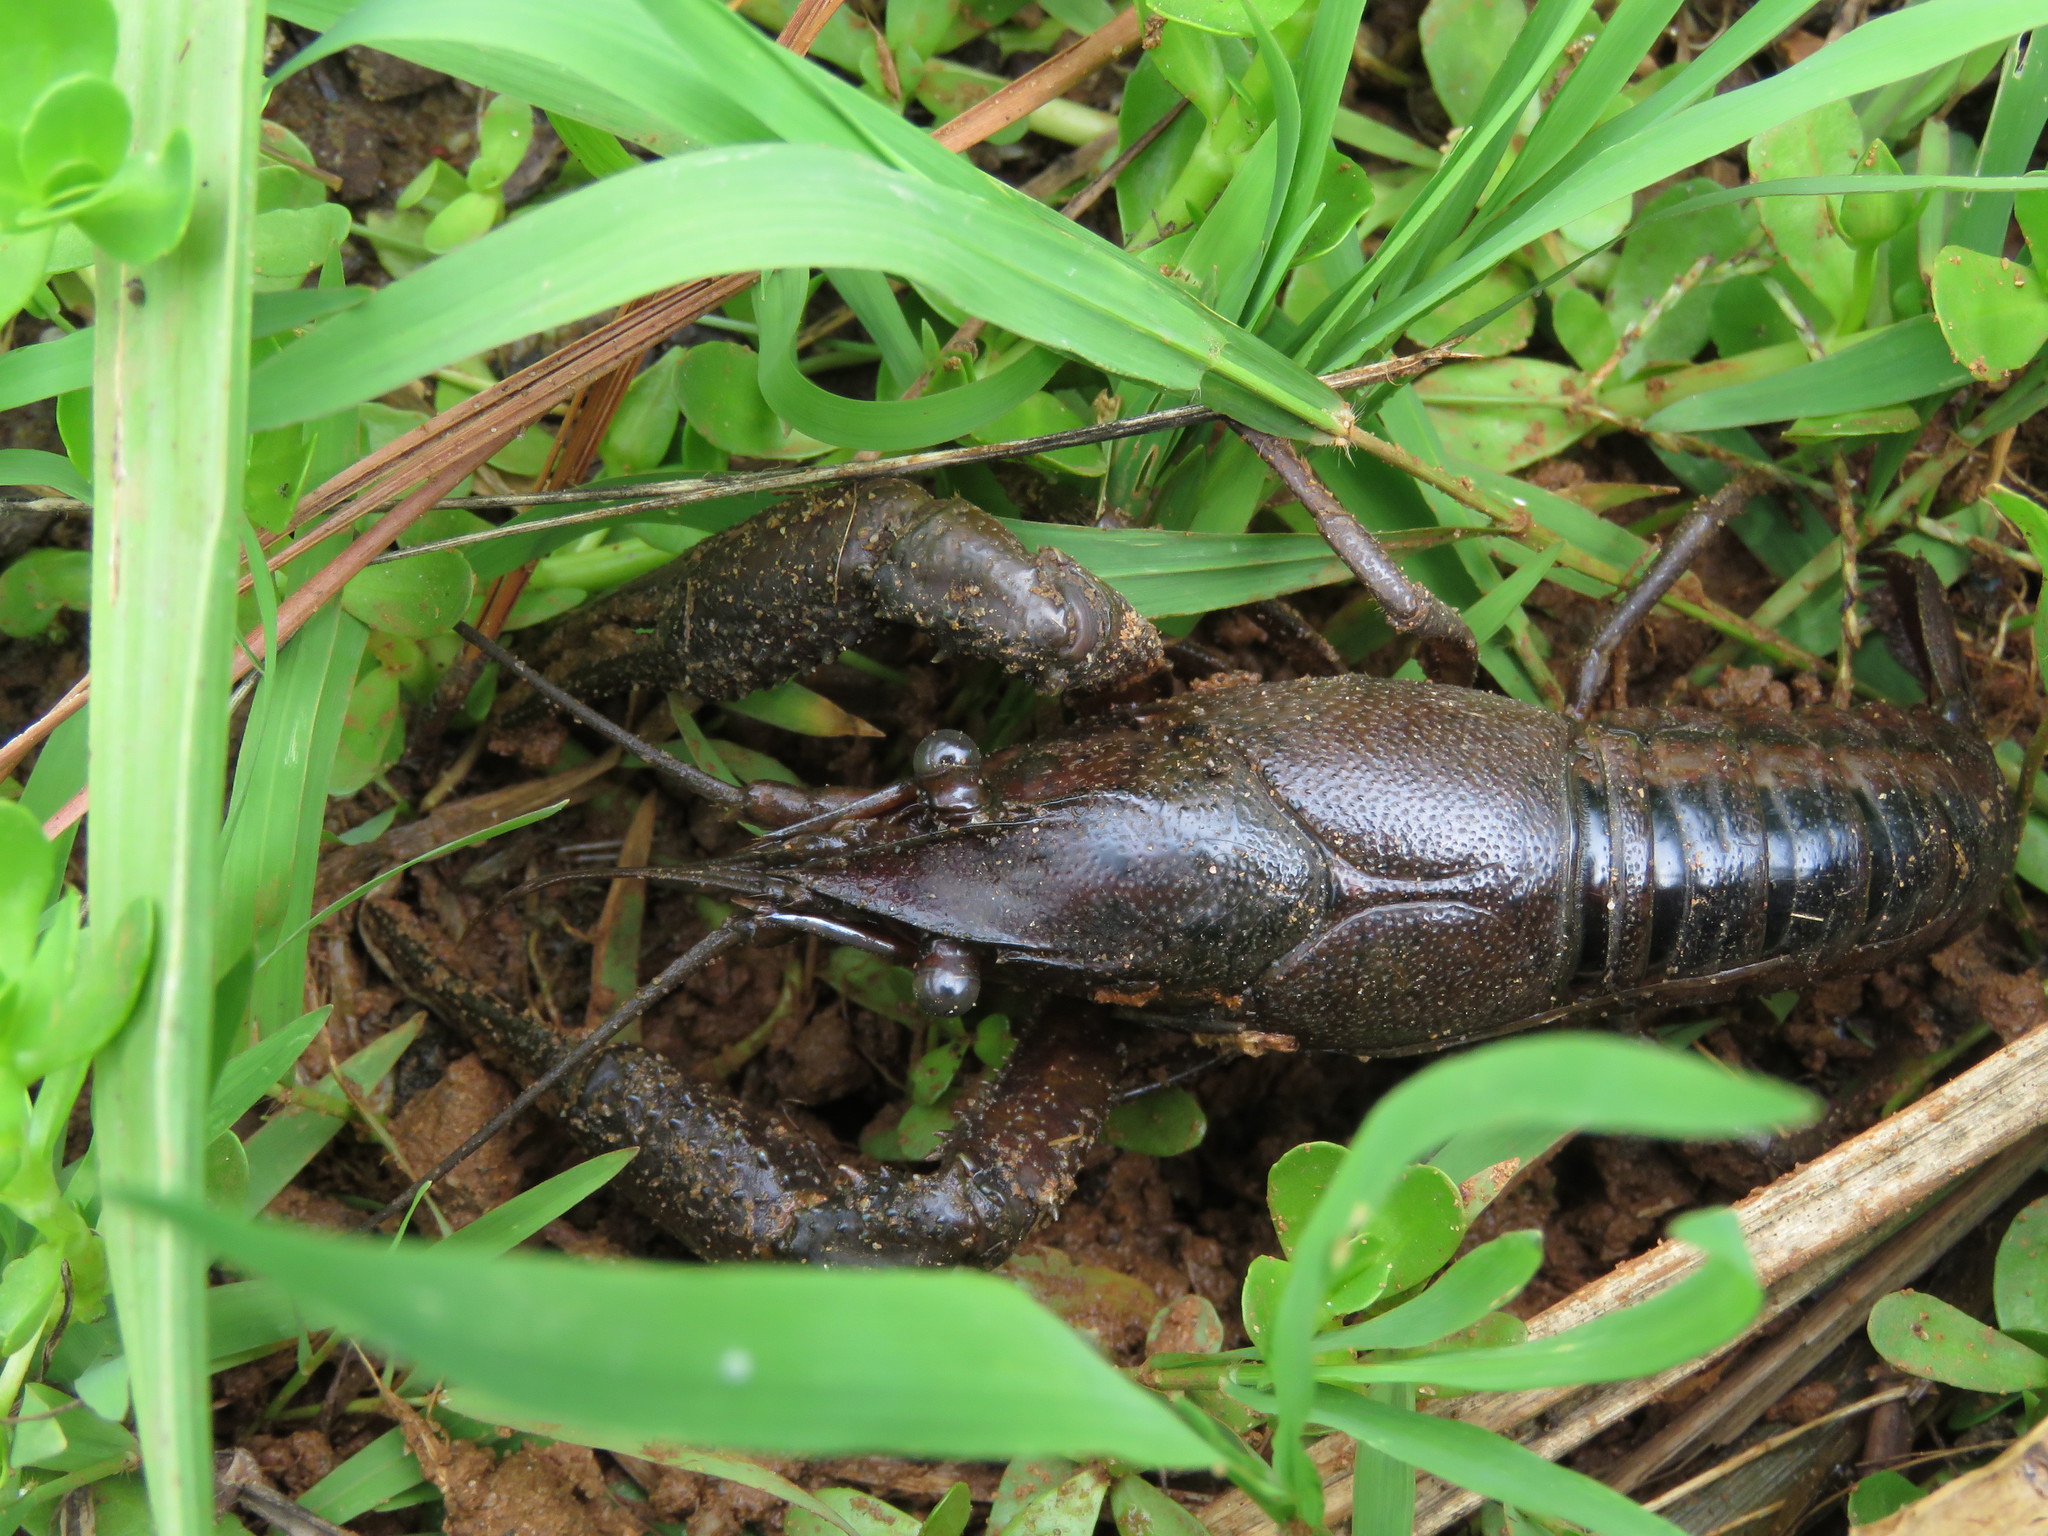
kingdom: Animalia
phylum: Arthropoda
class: Malacostraca
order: Decapoda
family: Cambaridae
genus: Procambarus
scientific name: Procambarus acutus
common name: White river crayfish
